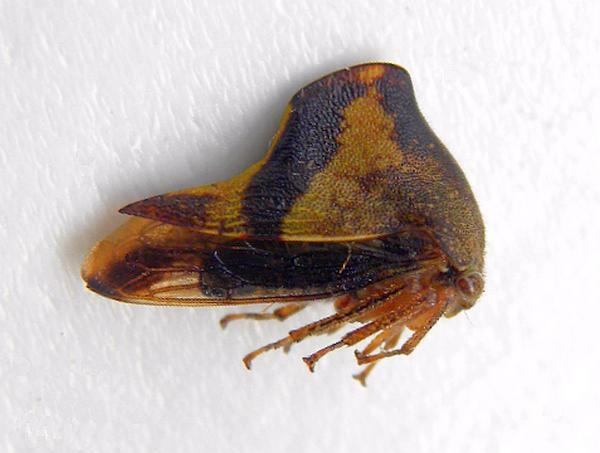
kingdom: Animalia
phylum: Arthropoda
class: Insecta
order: Hemiptera
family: Membracidae
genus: Helonica
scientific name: Helonica excelsa
